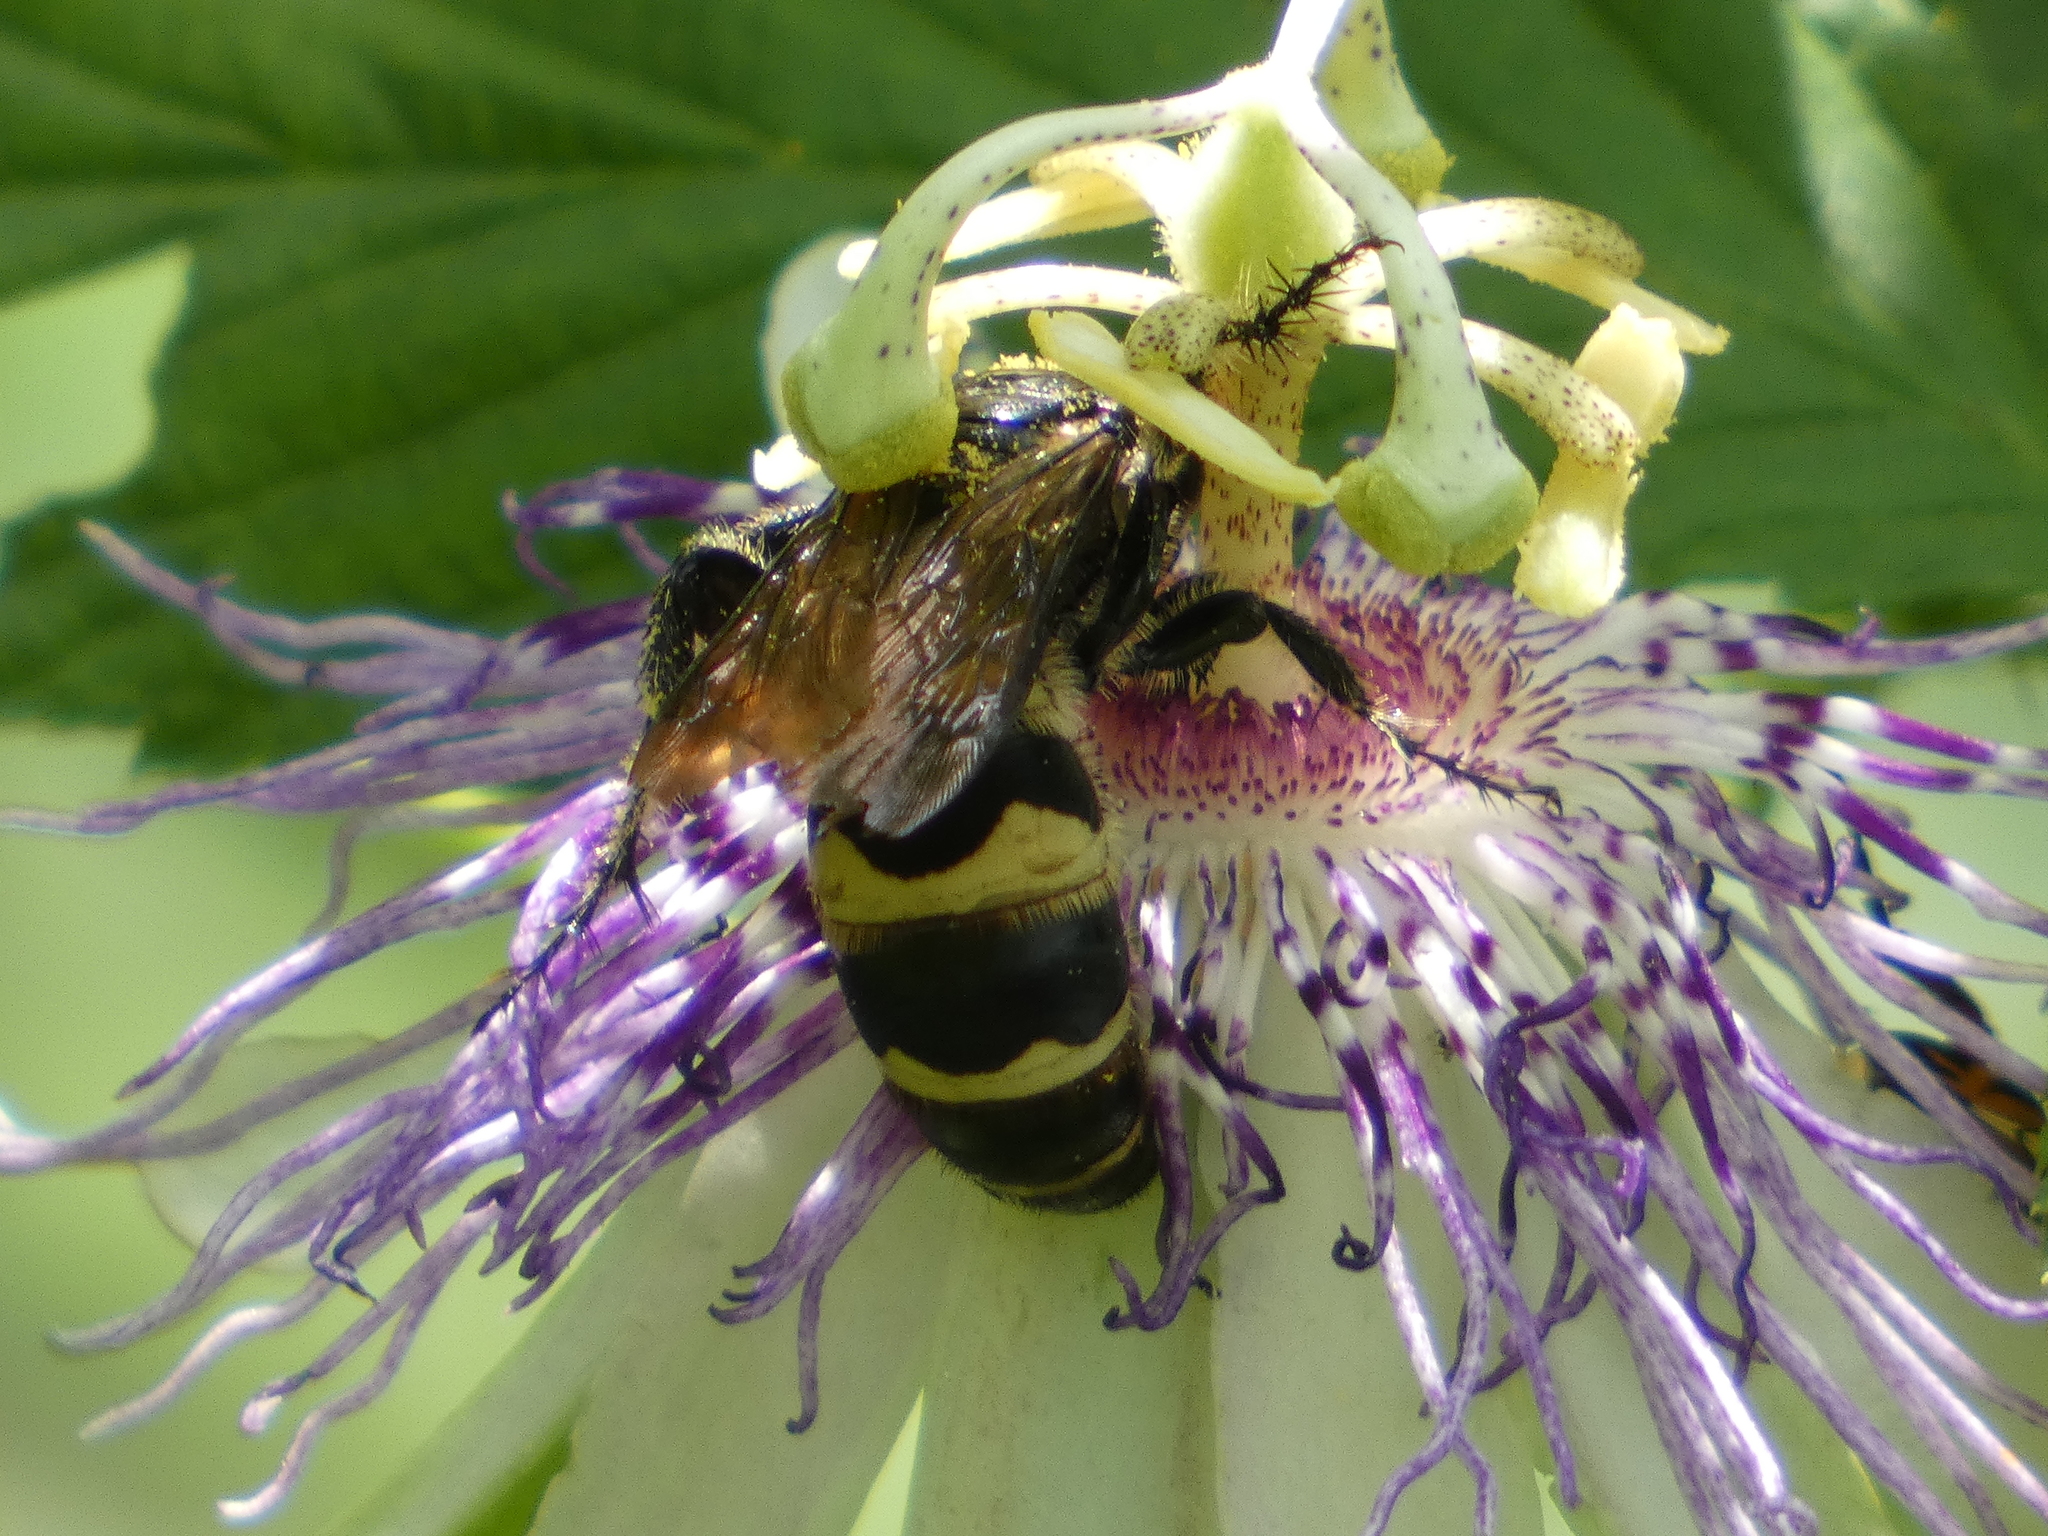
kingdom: Animalia
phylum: Arthropoda
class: Insecta
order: Hymenoptera
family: Scoliidae
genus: Dielis
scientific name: Dielis
